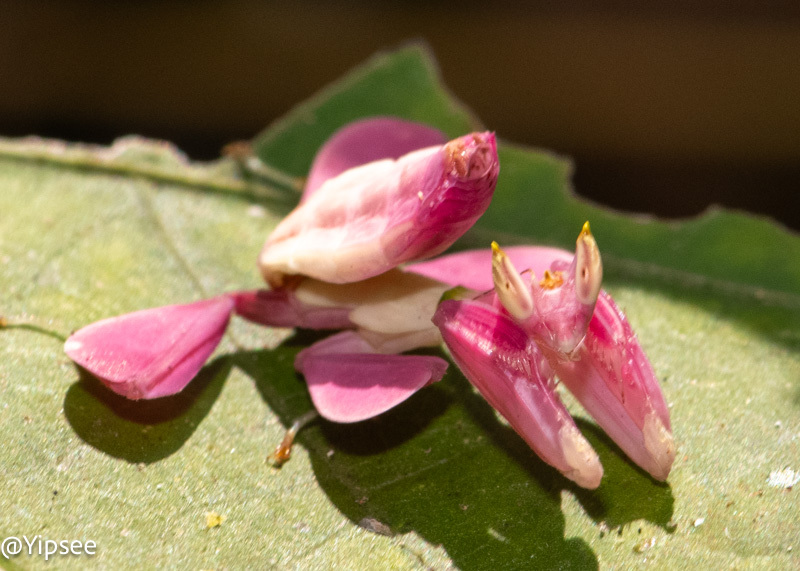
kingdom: Animalia
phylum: Arthropoda
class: Insecta
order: Mantodea
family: Hymenopodidae
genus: Hymenopus
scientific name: Hymenopus coronatus
